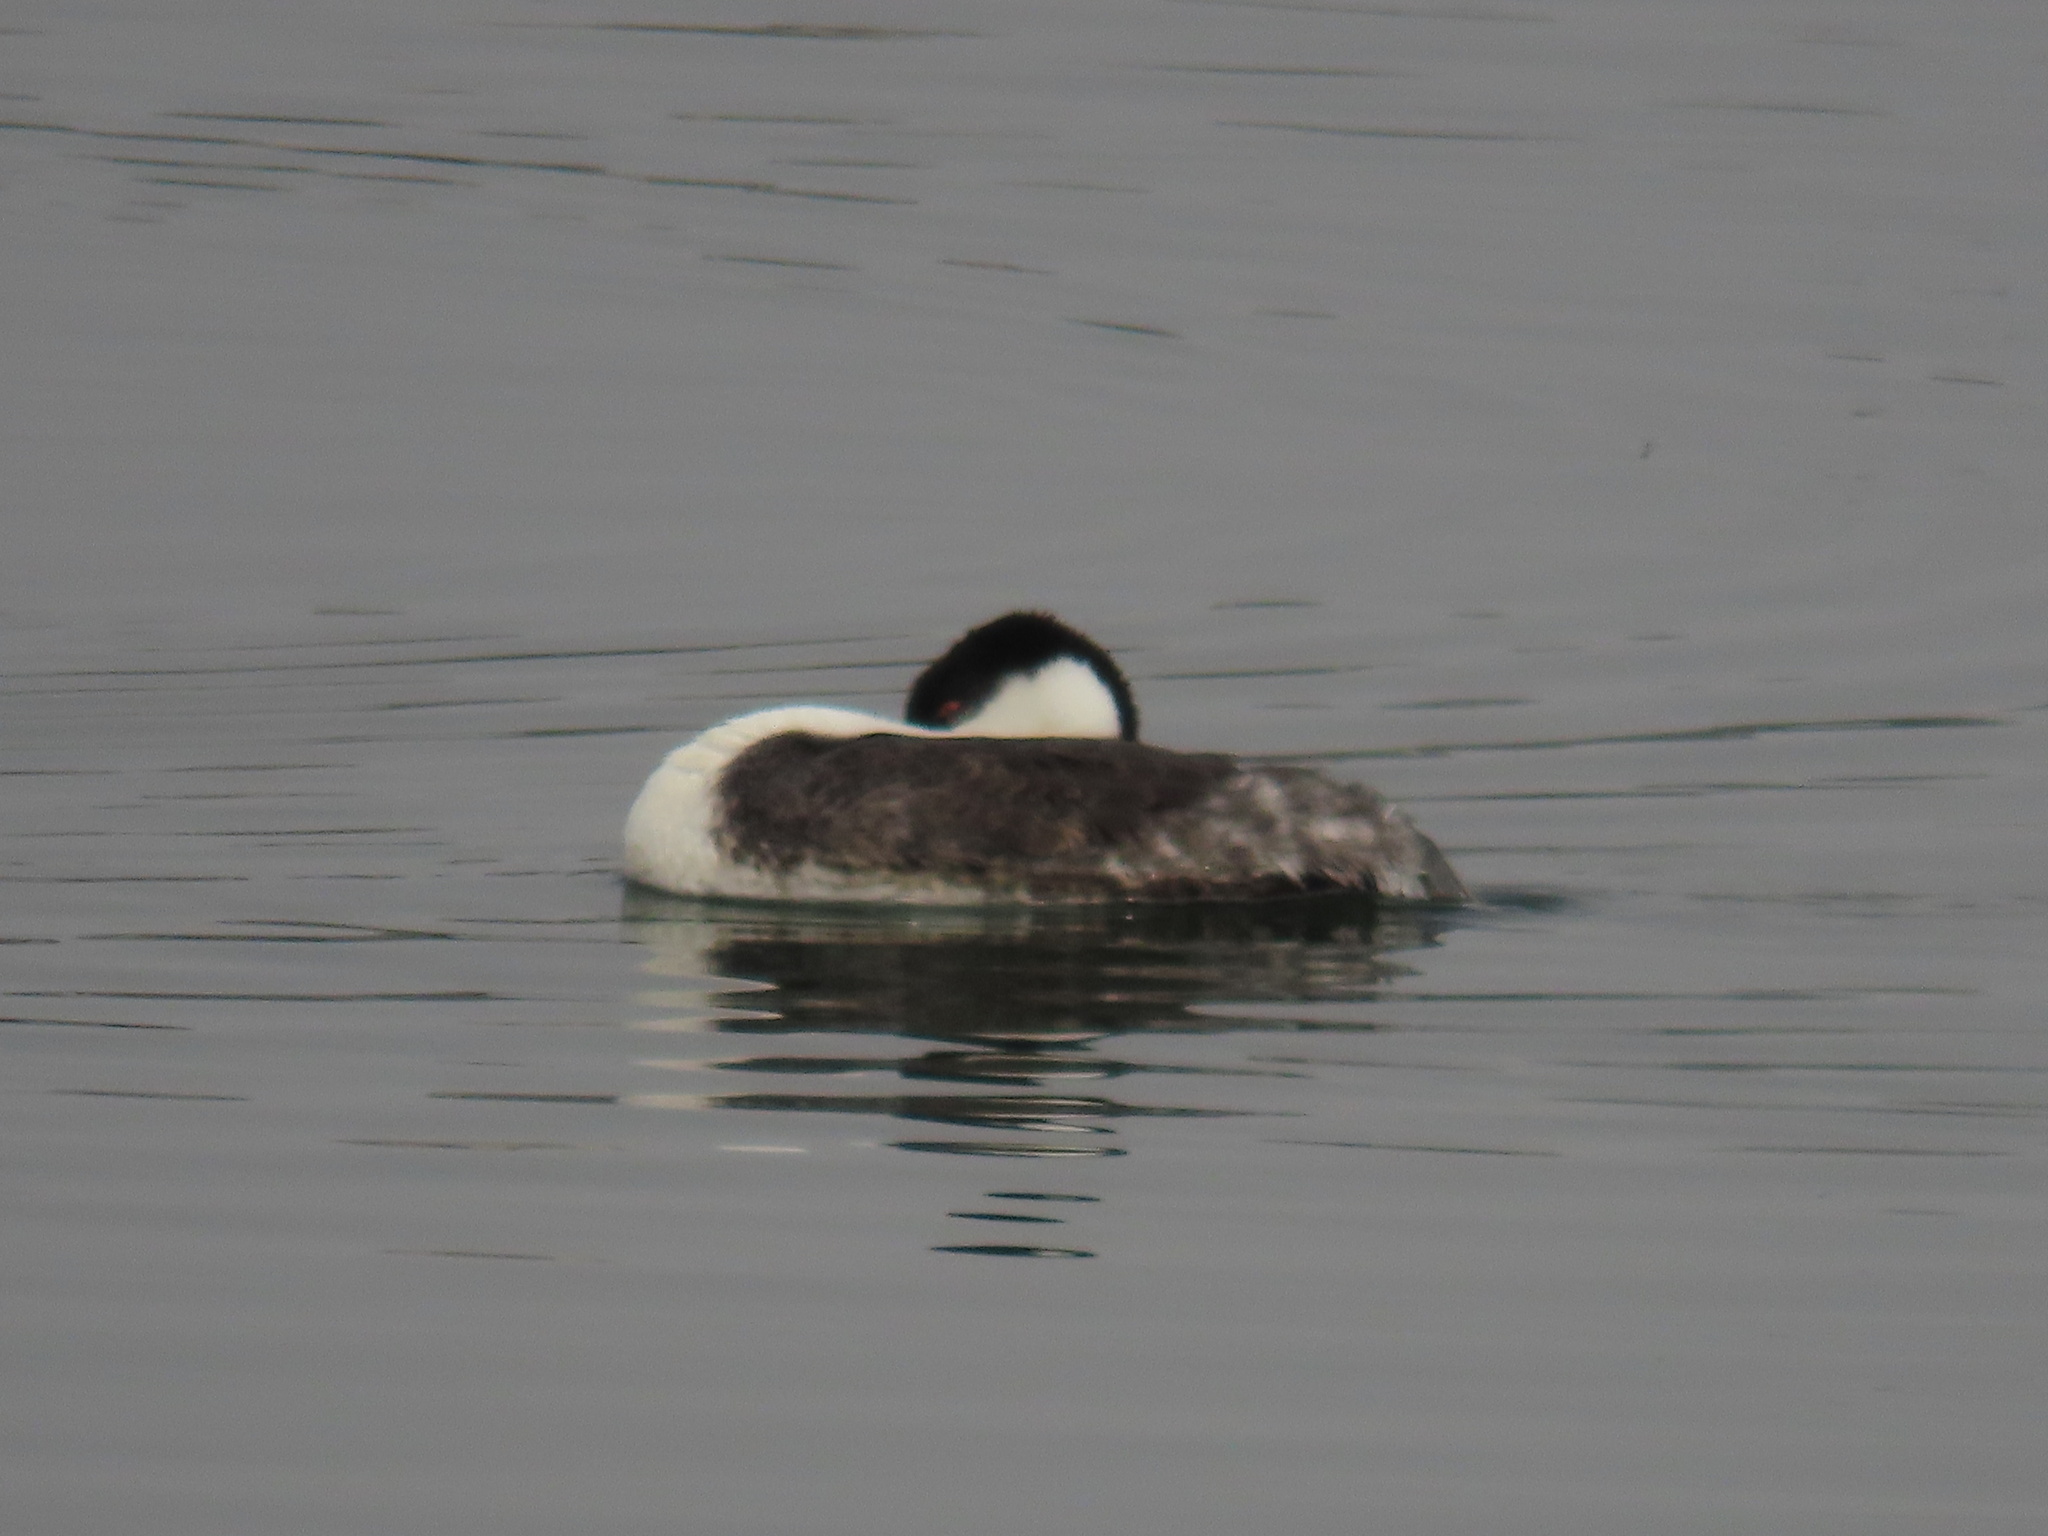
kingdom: Animalia
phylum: Chordata
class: Aves
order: Podicipediformes
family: Podicipedidae
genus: Aechmophorus
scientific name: Aechmophorus occidentalis
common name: Western grebe
